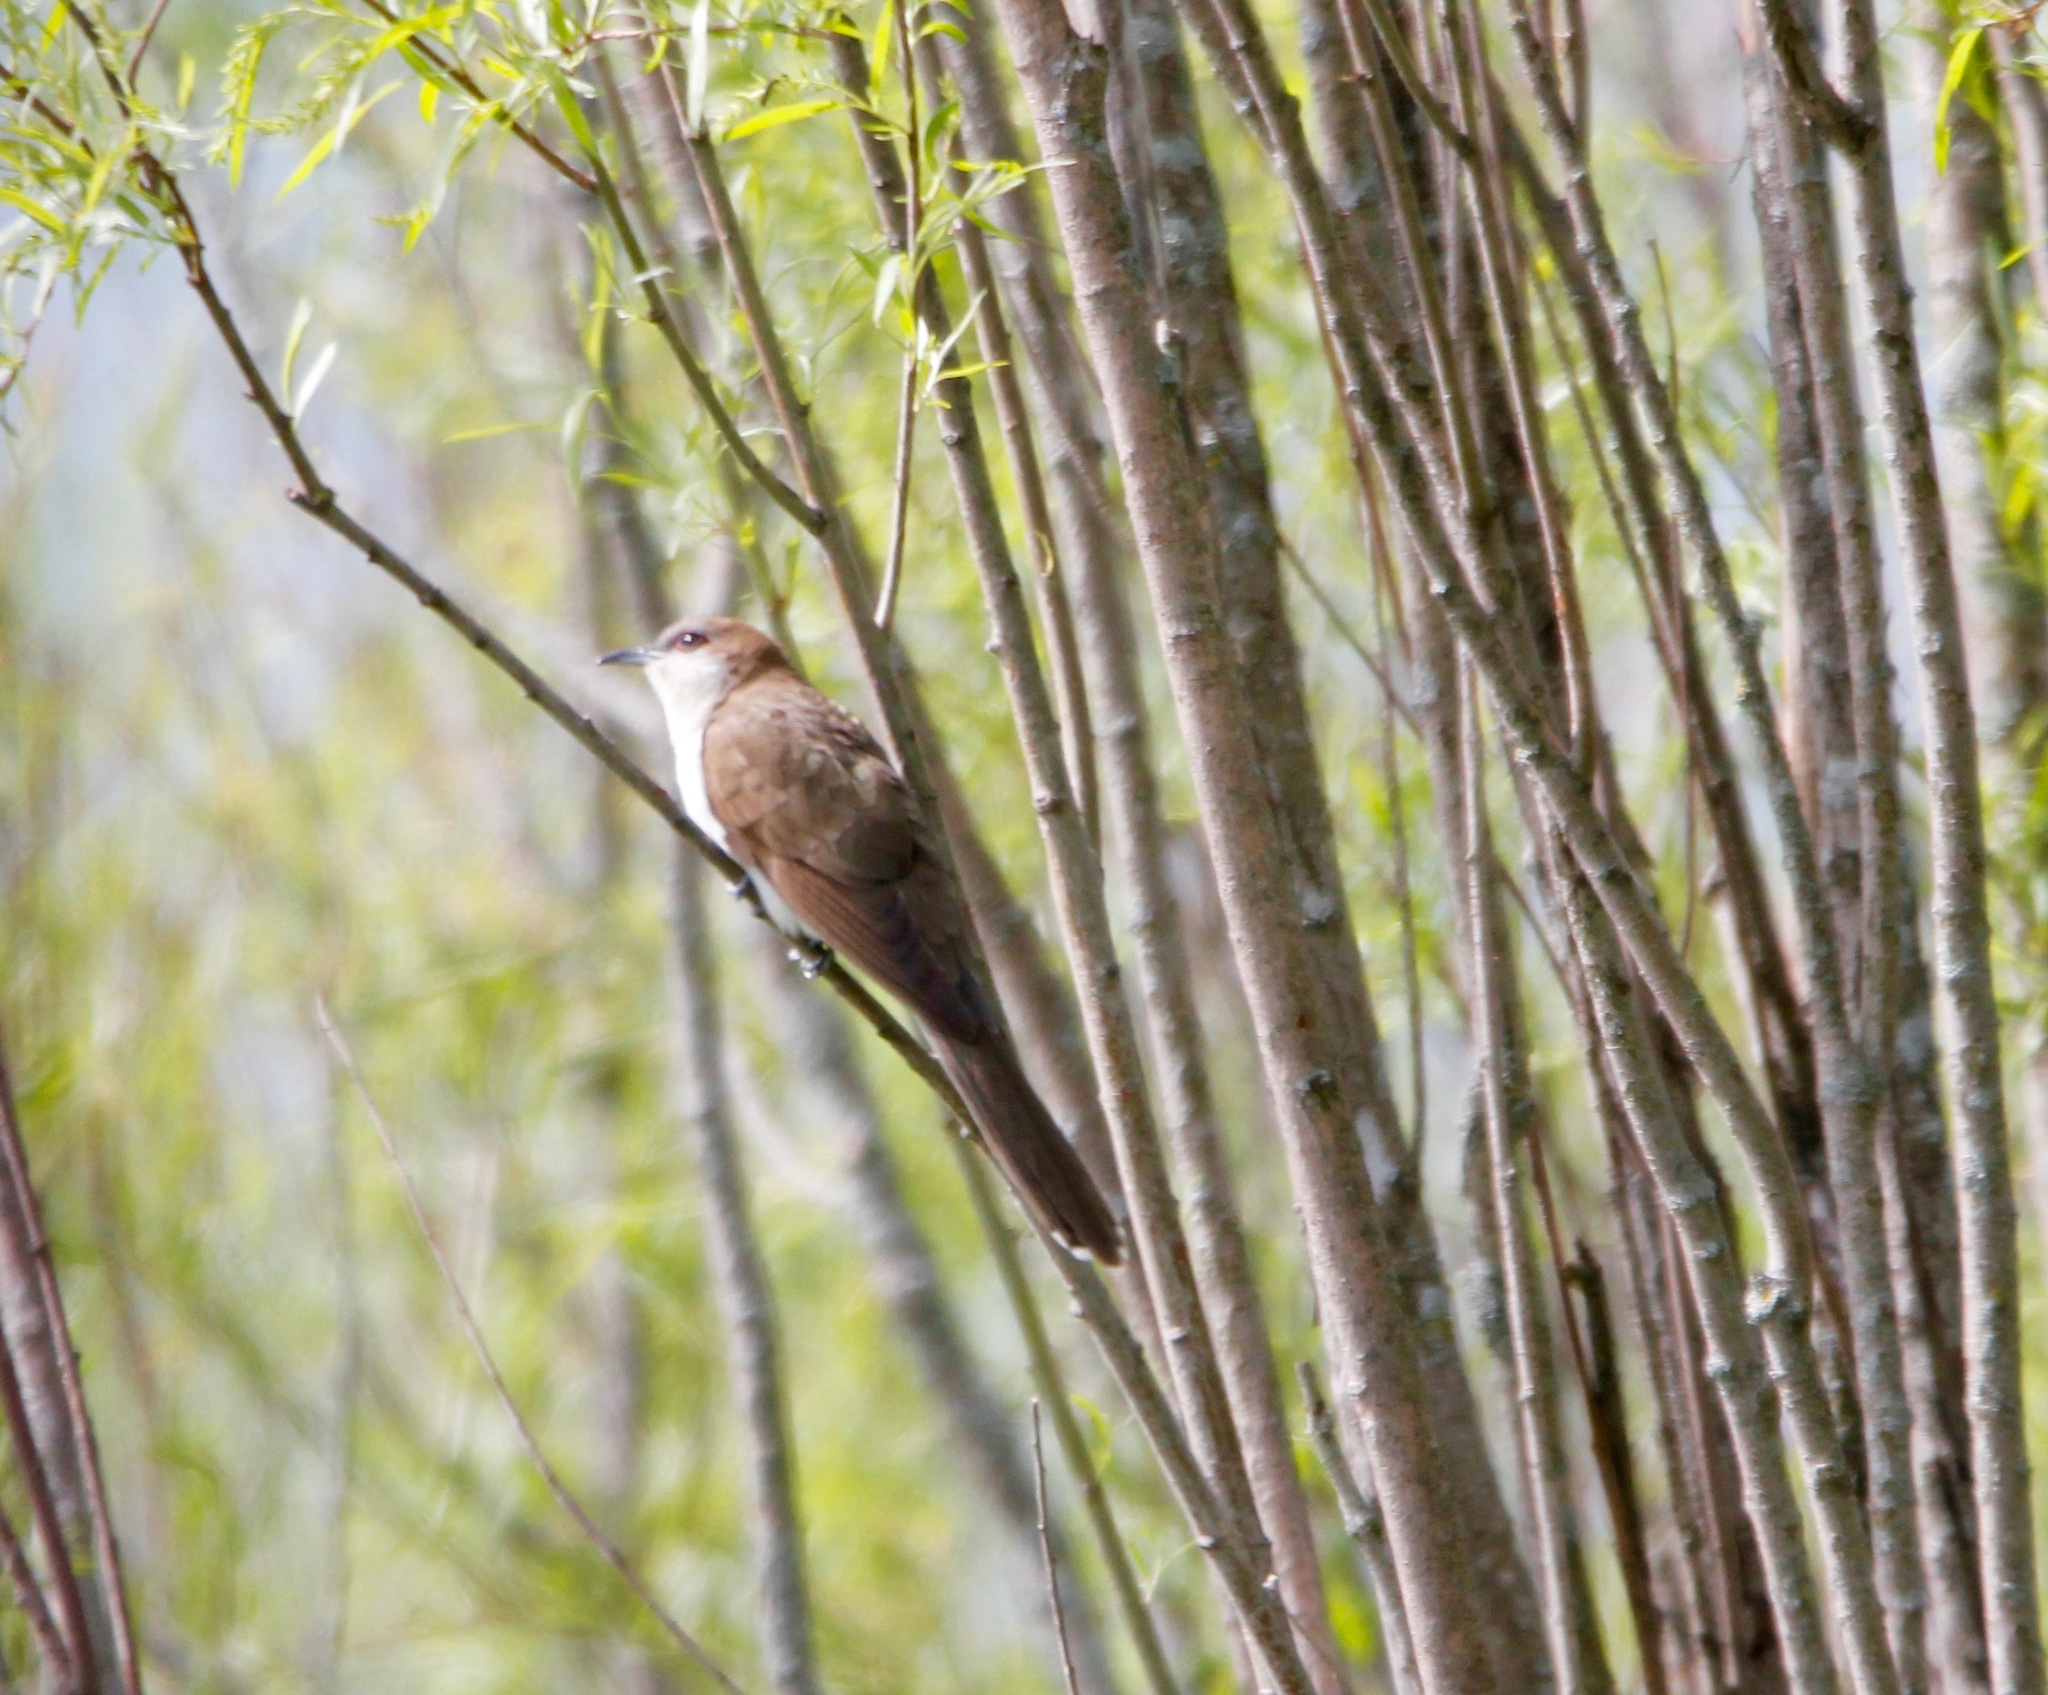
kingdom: Animalia
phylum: Chordata
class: Aves
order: Cuculiformes
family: Cuculidae
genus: Coccyzus
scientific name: Coccyzus erythropthalmus
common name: Black-billed cuckoo
